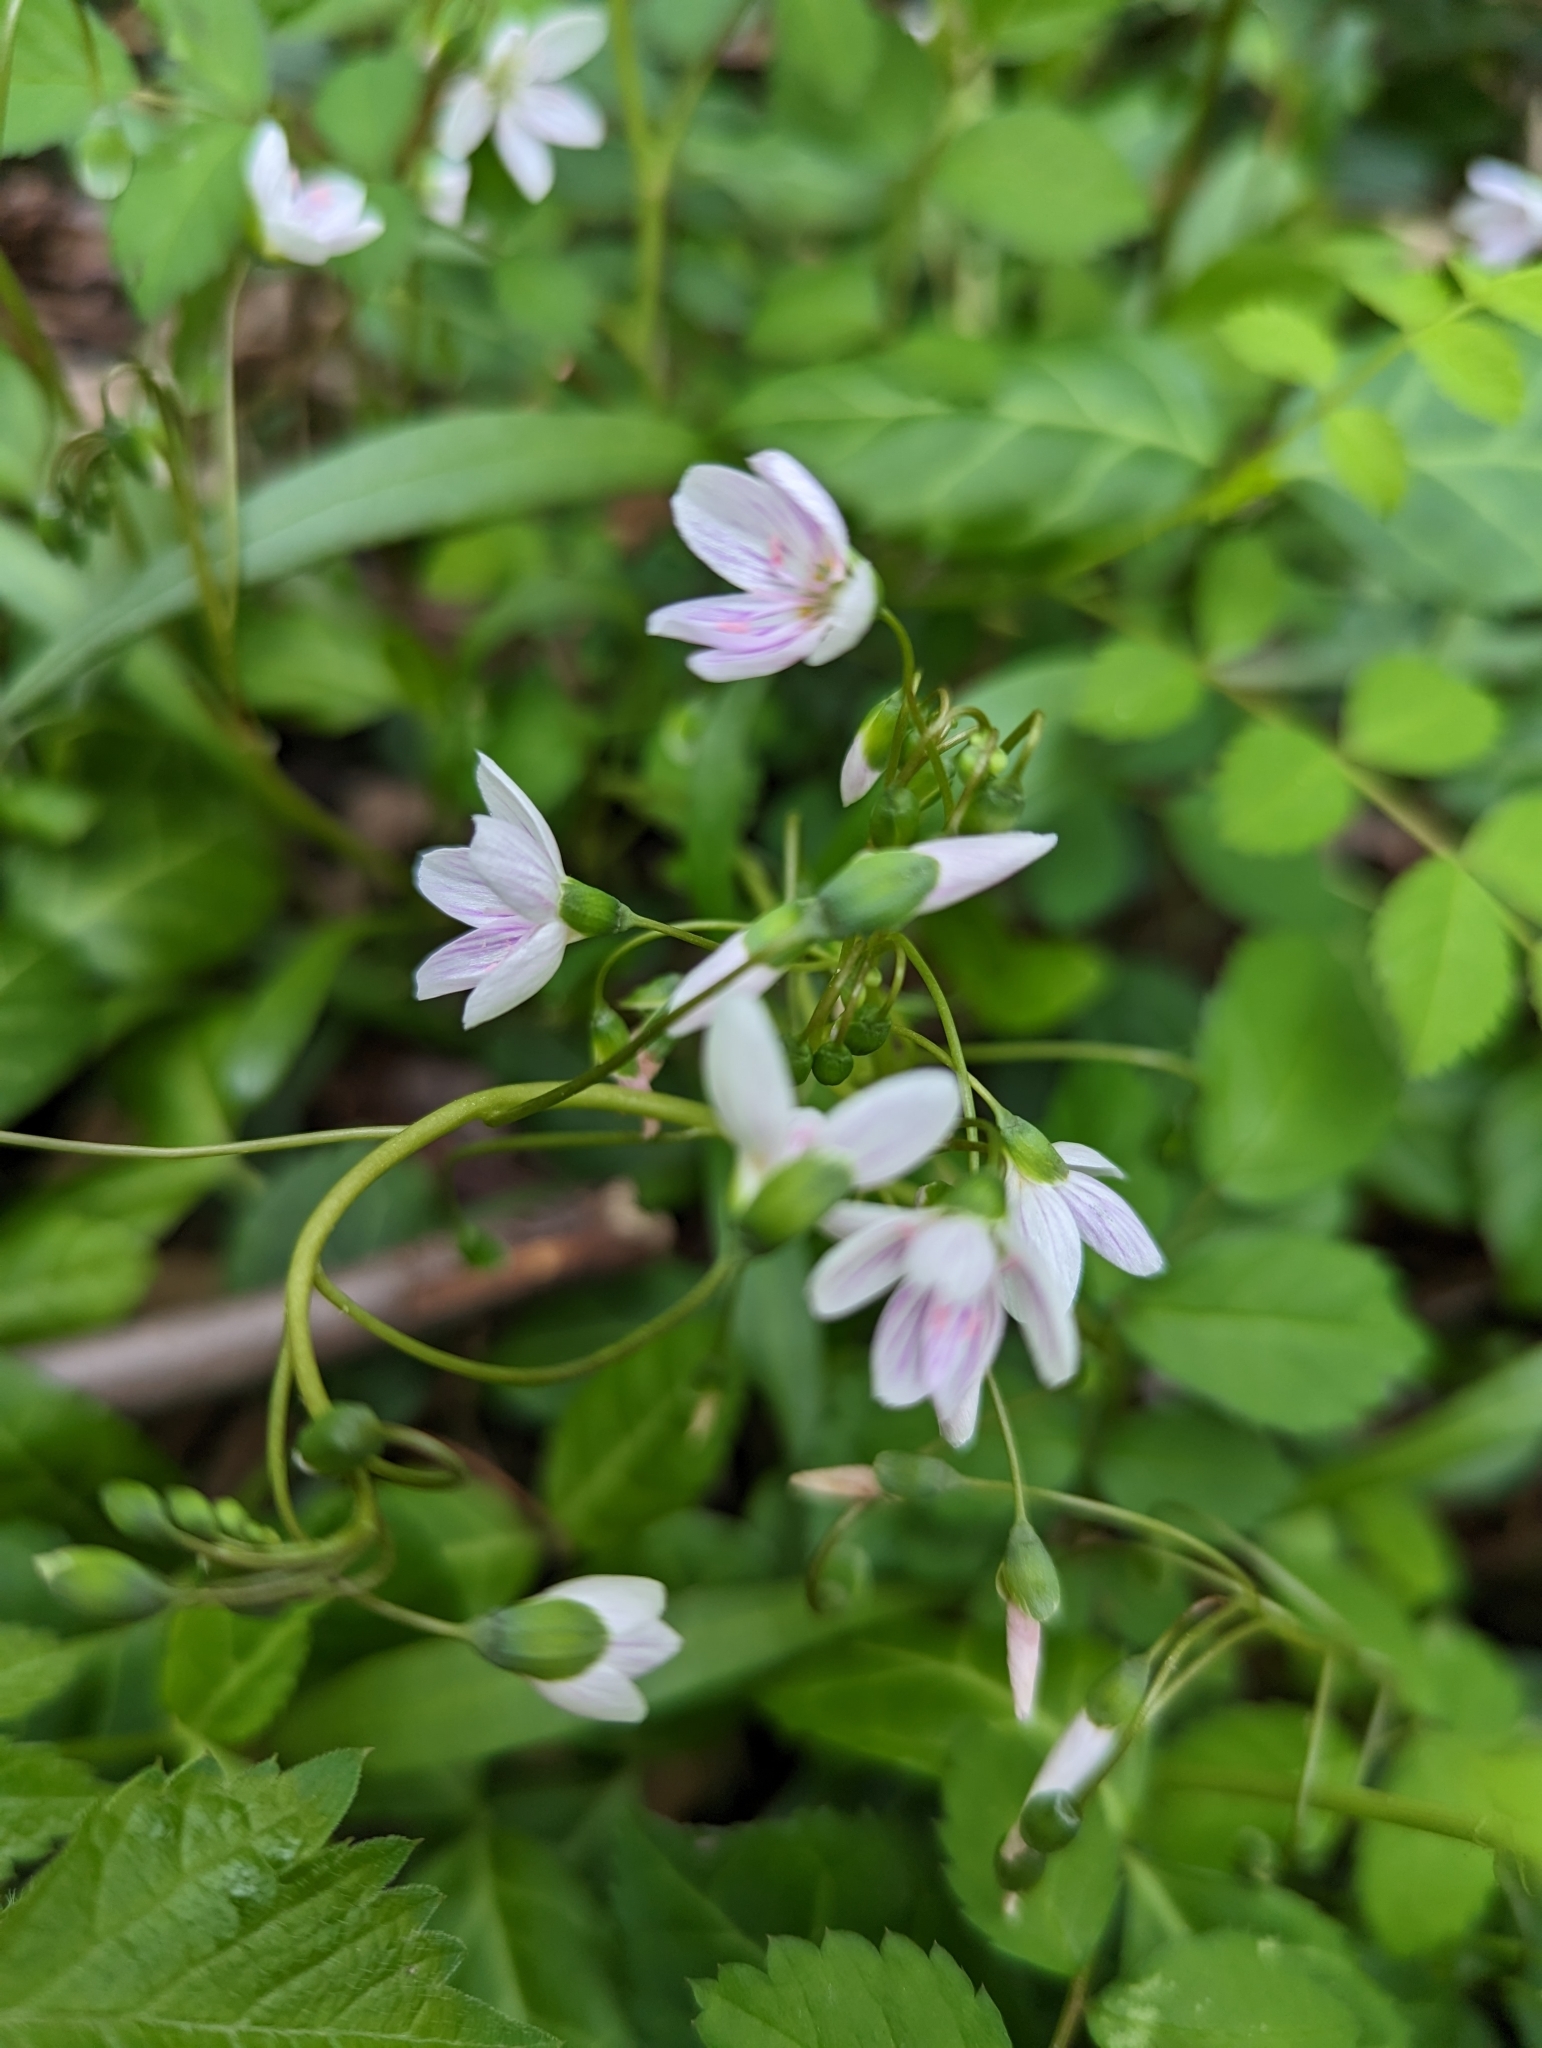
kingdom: Plantae
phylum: Tracheophyta
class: Magnoliopsida
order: Caryophyllales
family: Montiaceae
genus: Claytonia
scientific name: Claytonia virginica
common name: Virginia springbeauty
